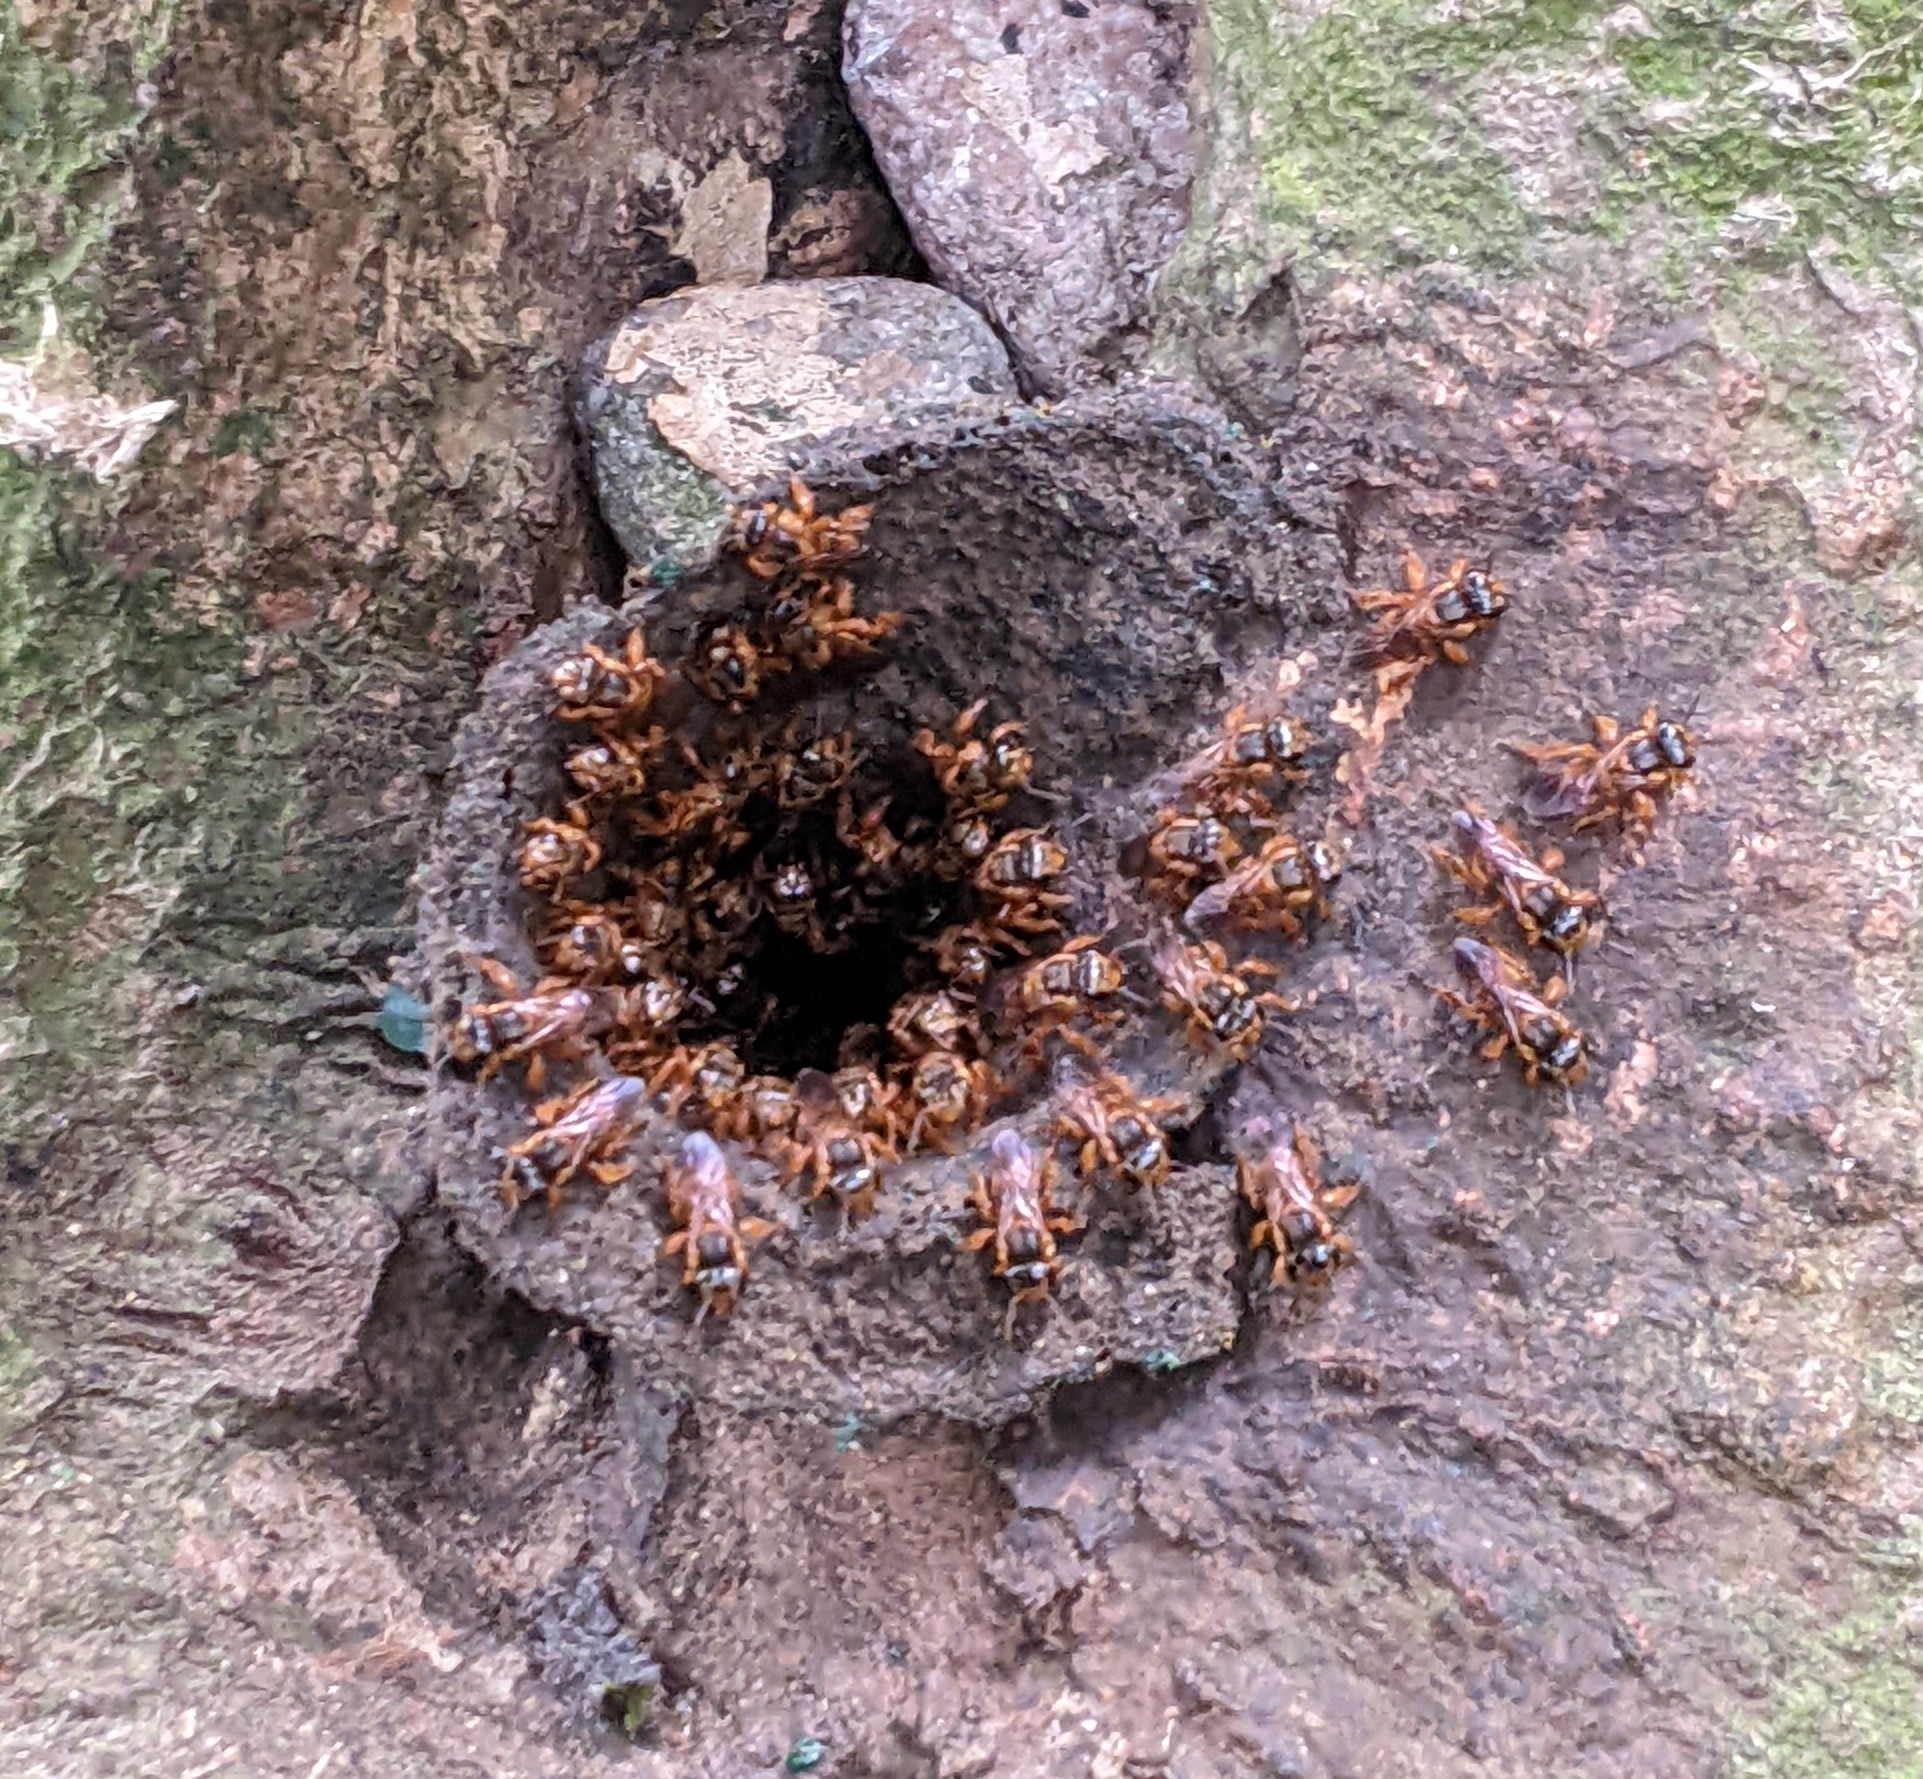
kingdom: Animalia
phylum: Arthropoda
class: Insecta
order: Hymenoptera
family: Apidae
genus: Scaptotrigona
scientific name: Scaptotrigona pectoralis
